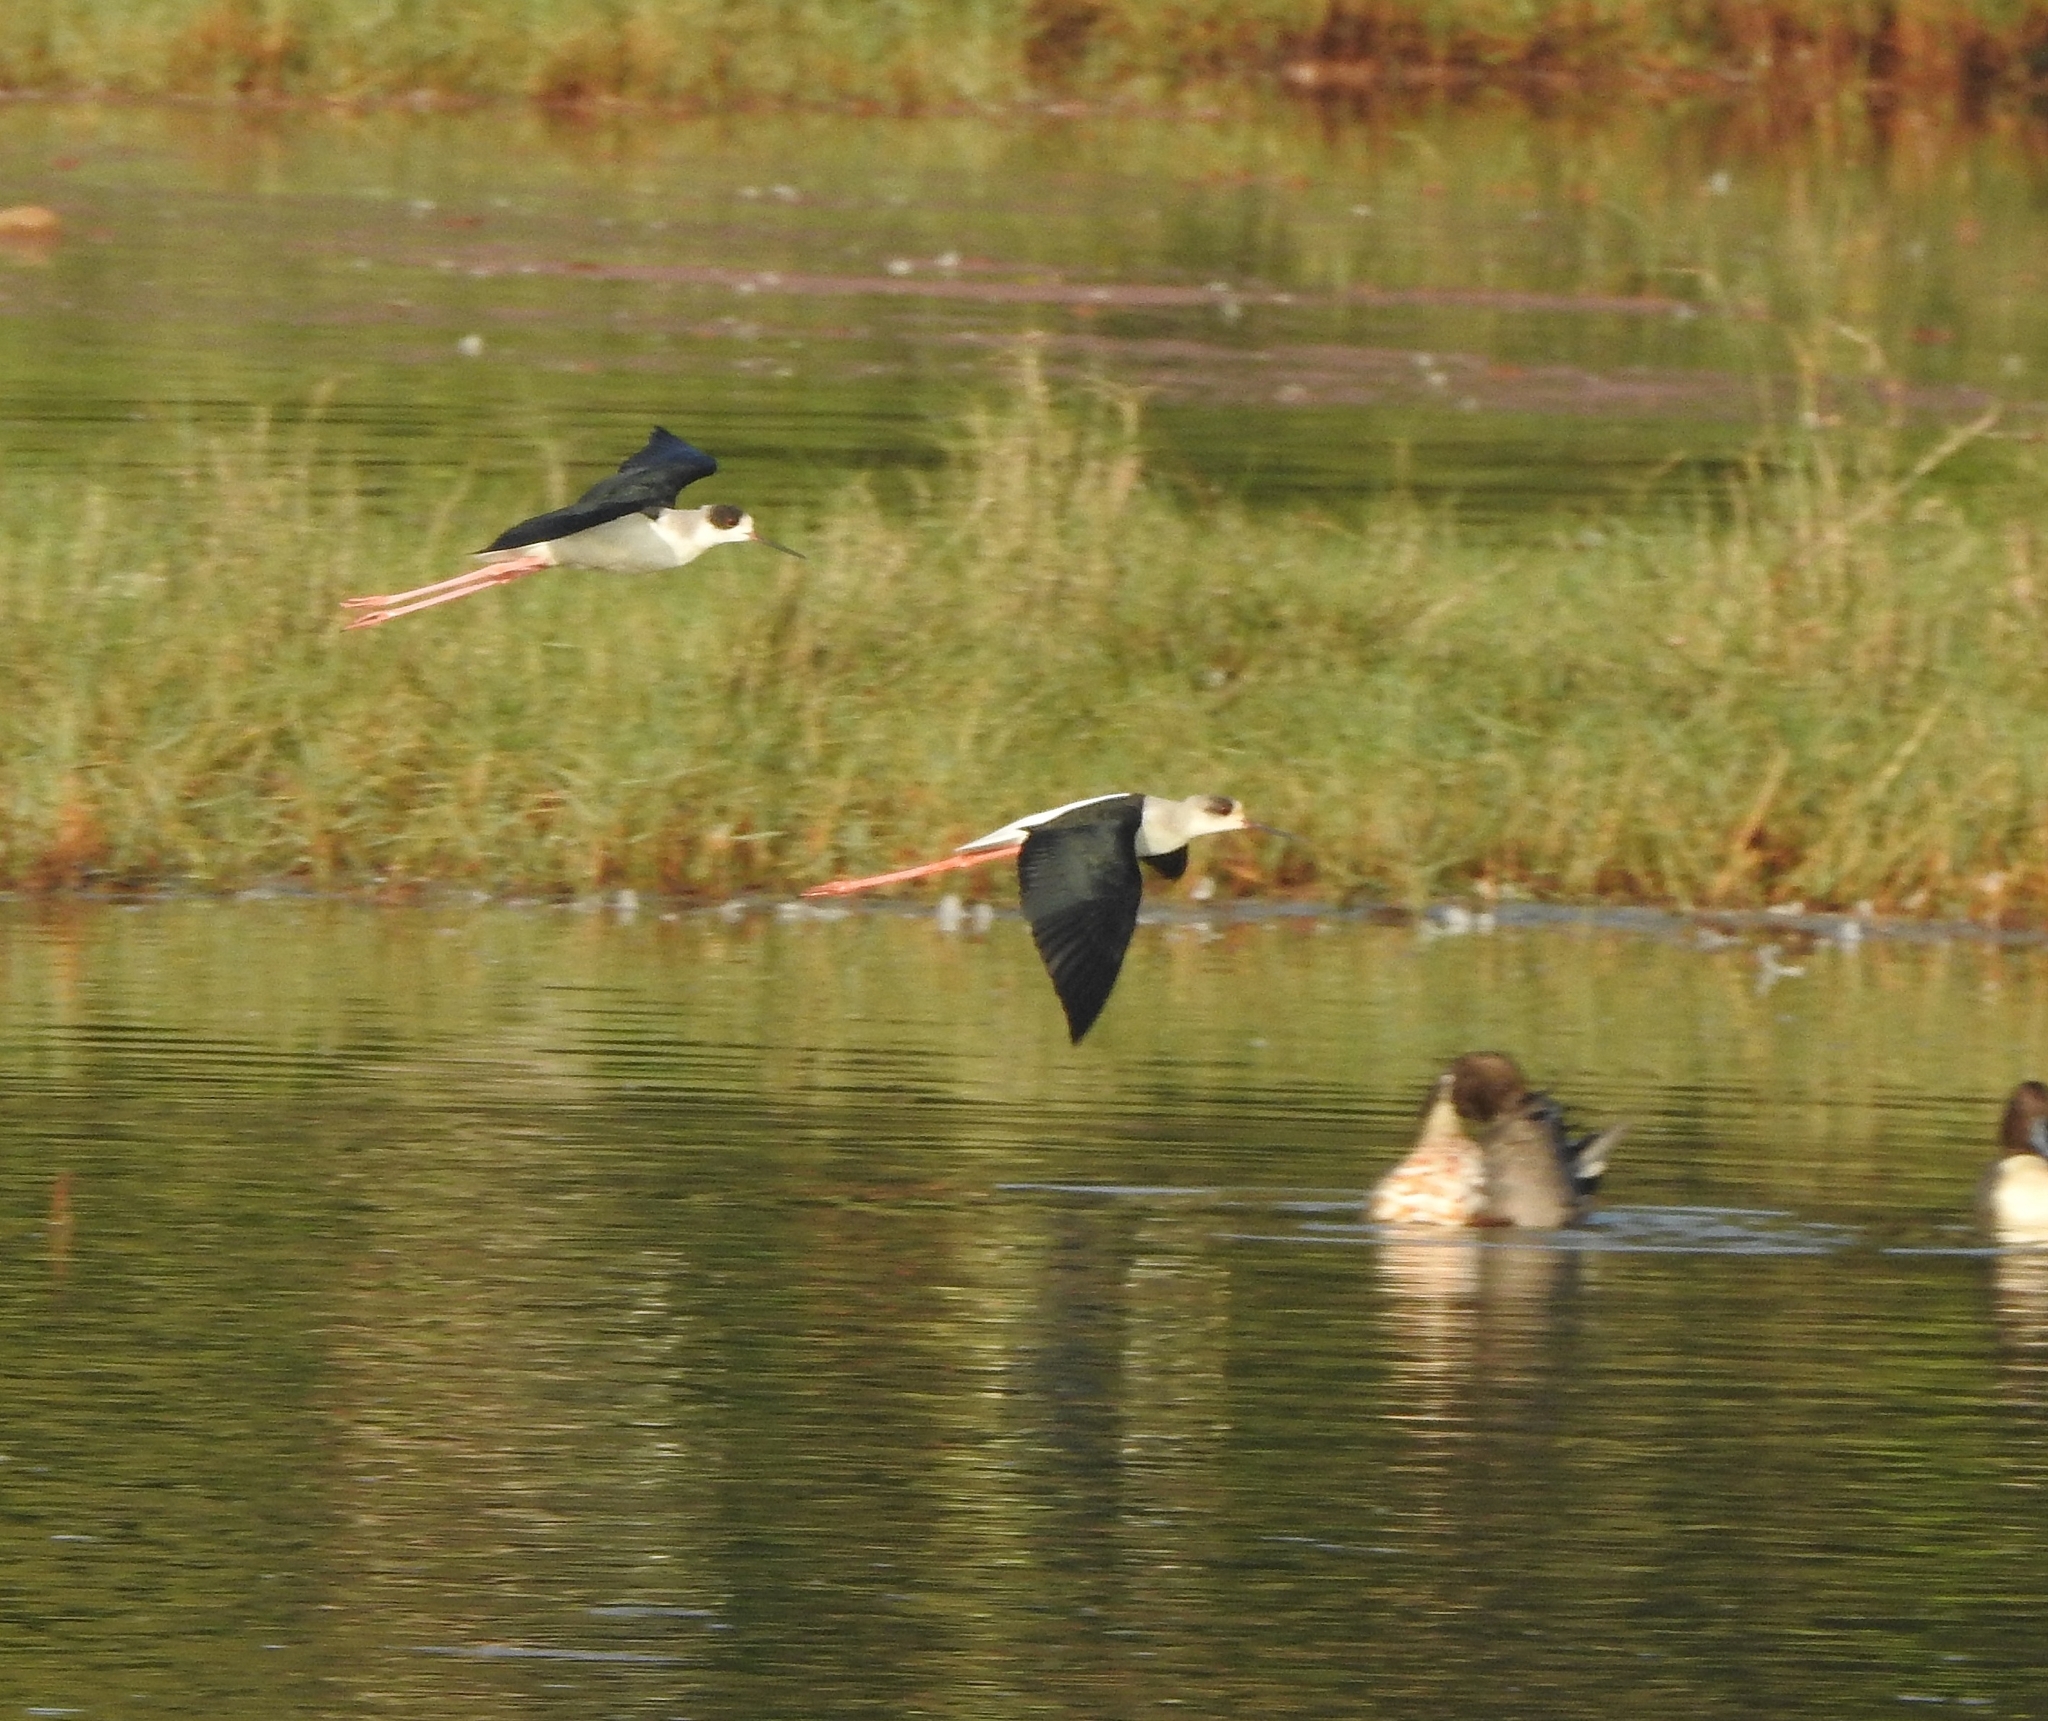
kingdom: Animalia
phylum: Chordata
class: Aves
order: Charadriiformes
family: Recurvirostridae
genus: Himantopus
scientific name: Himantopus himantopus
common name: Black-winged stilt
